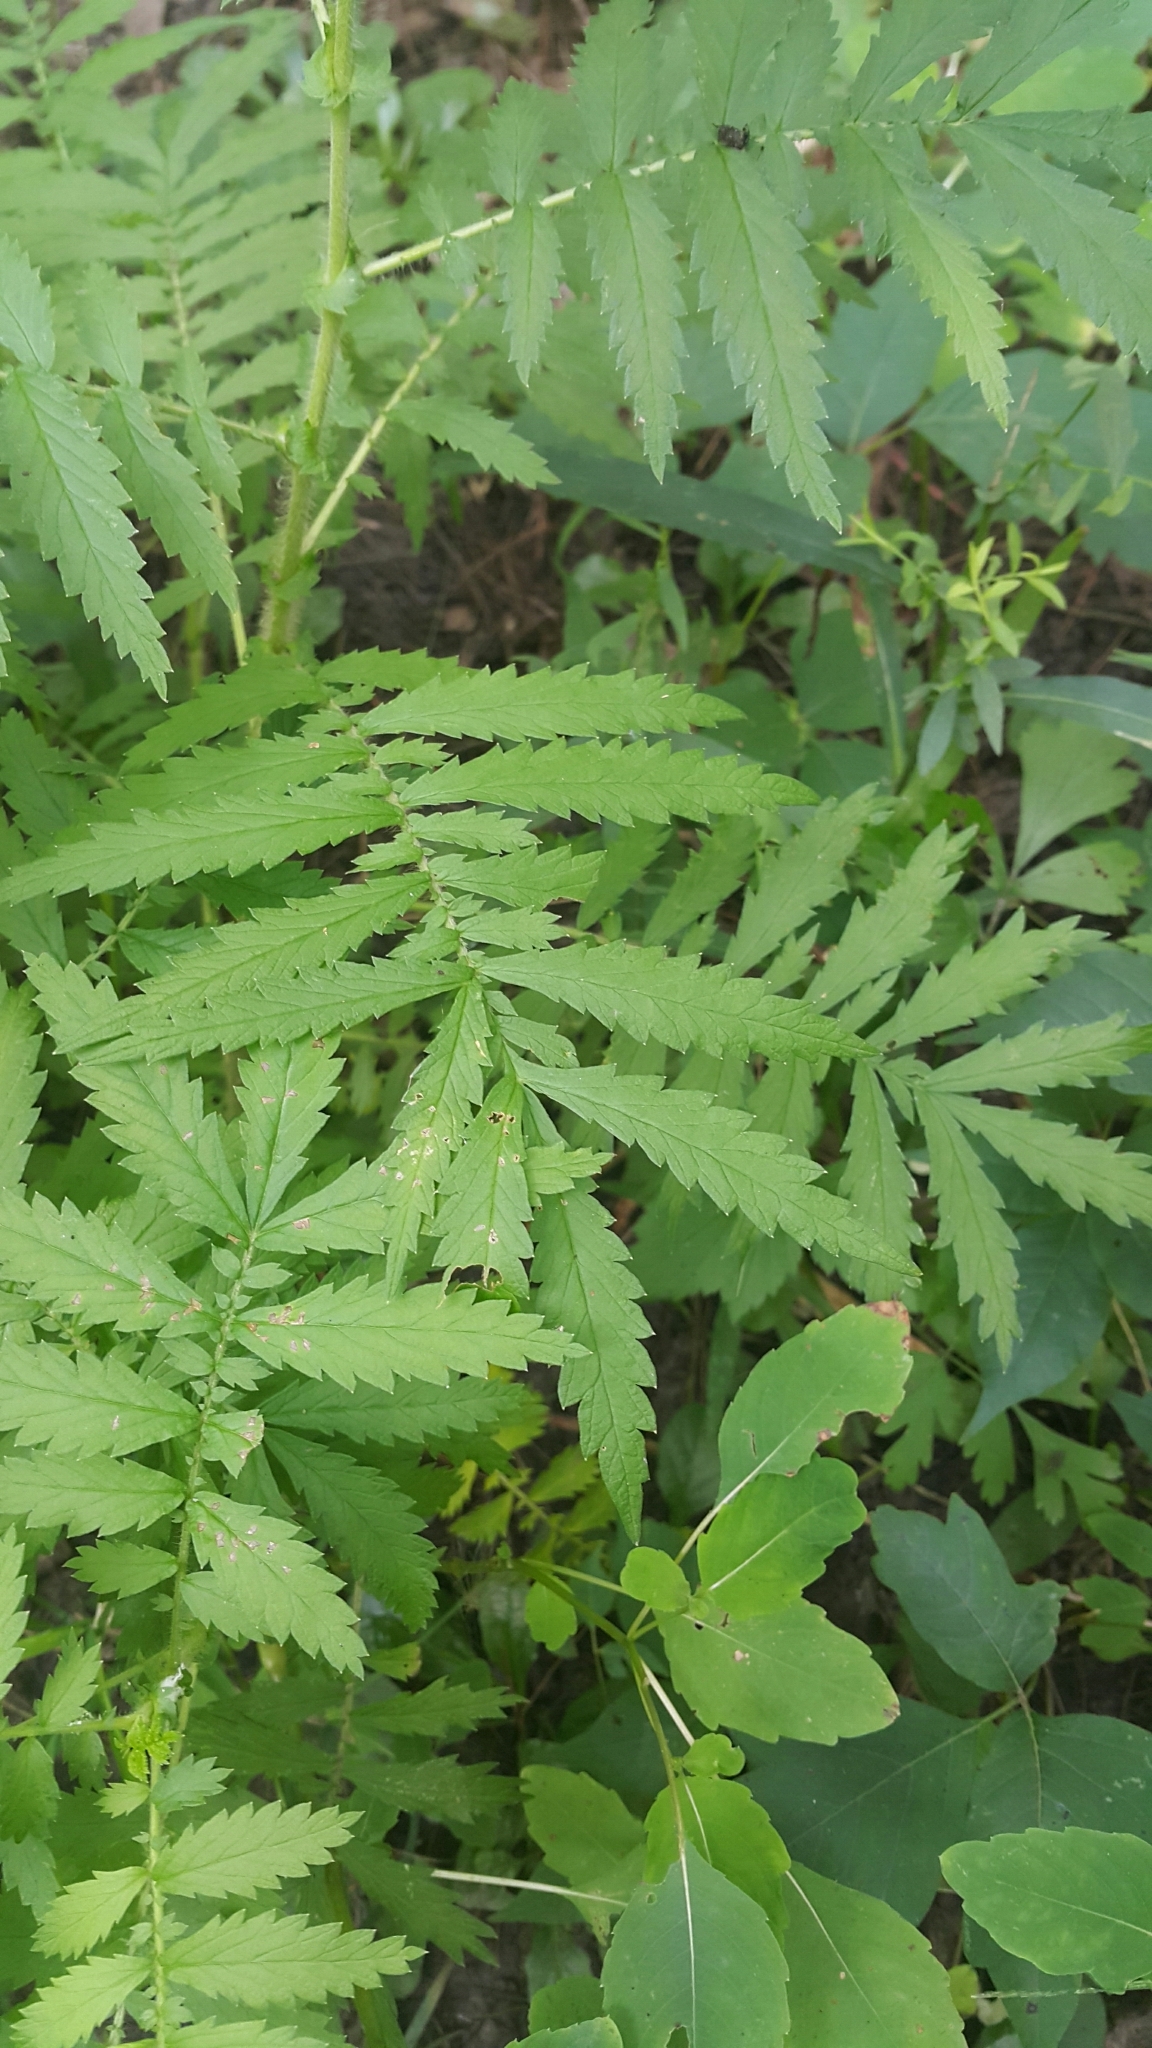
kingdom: Plantae
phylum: Tracheophyta
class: Magnoliopsida
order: Rosales
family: Rosaceae
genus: Agrimonia
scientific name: Agrimonia parviflora
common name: Harvest-lice
